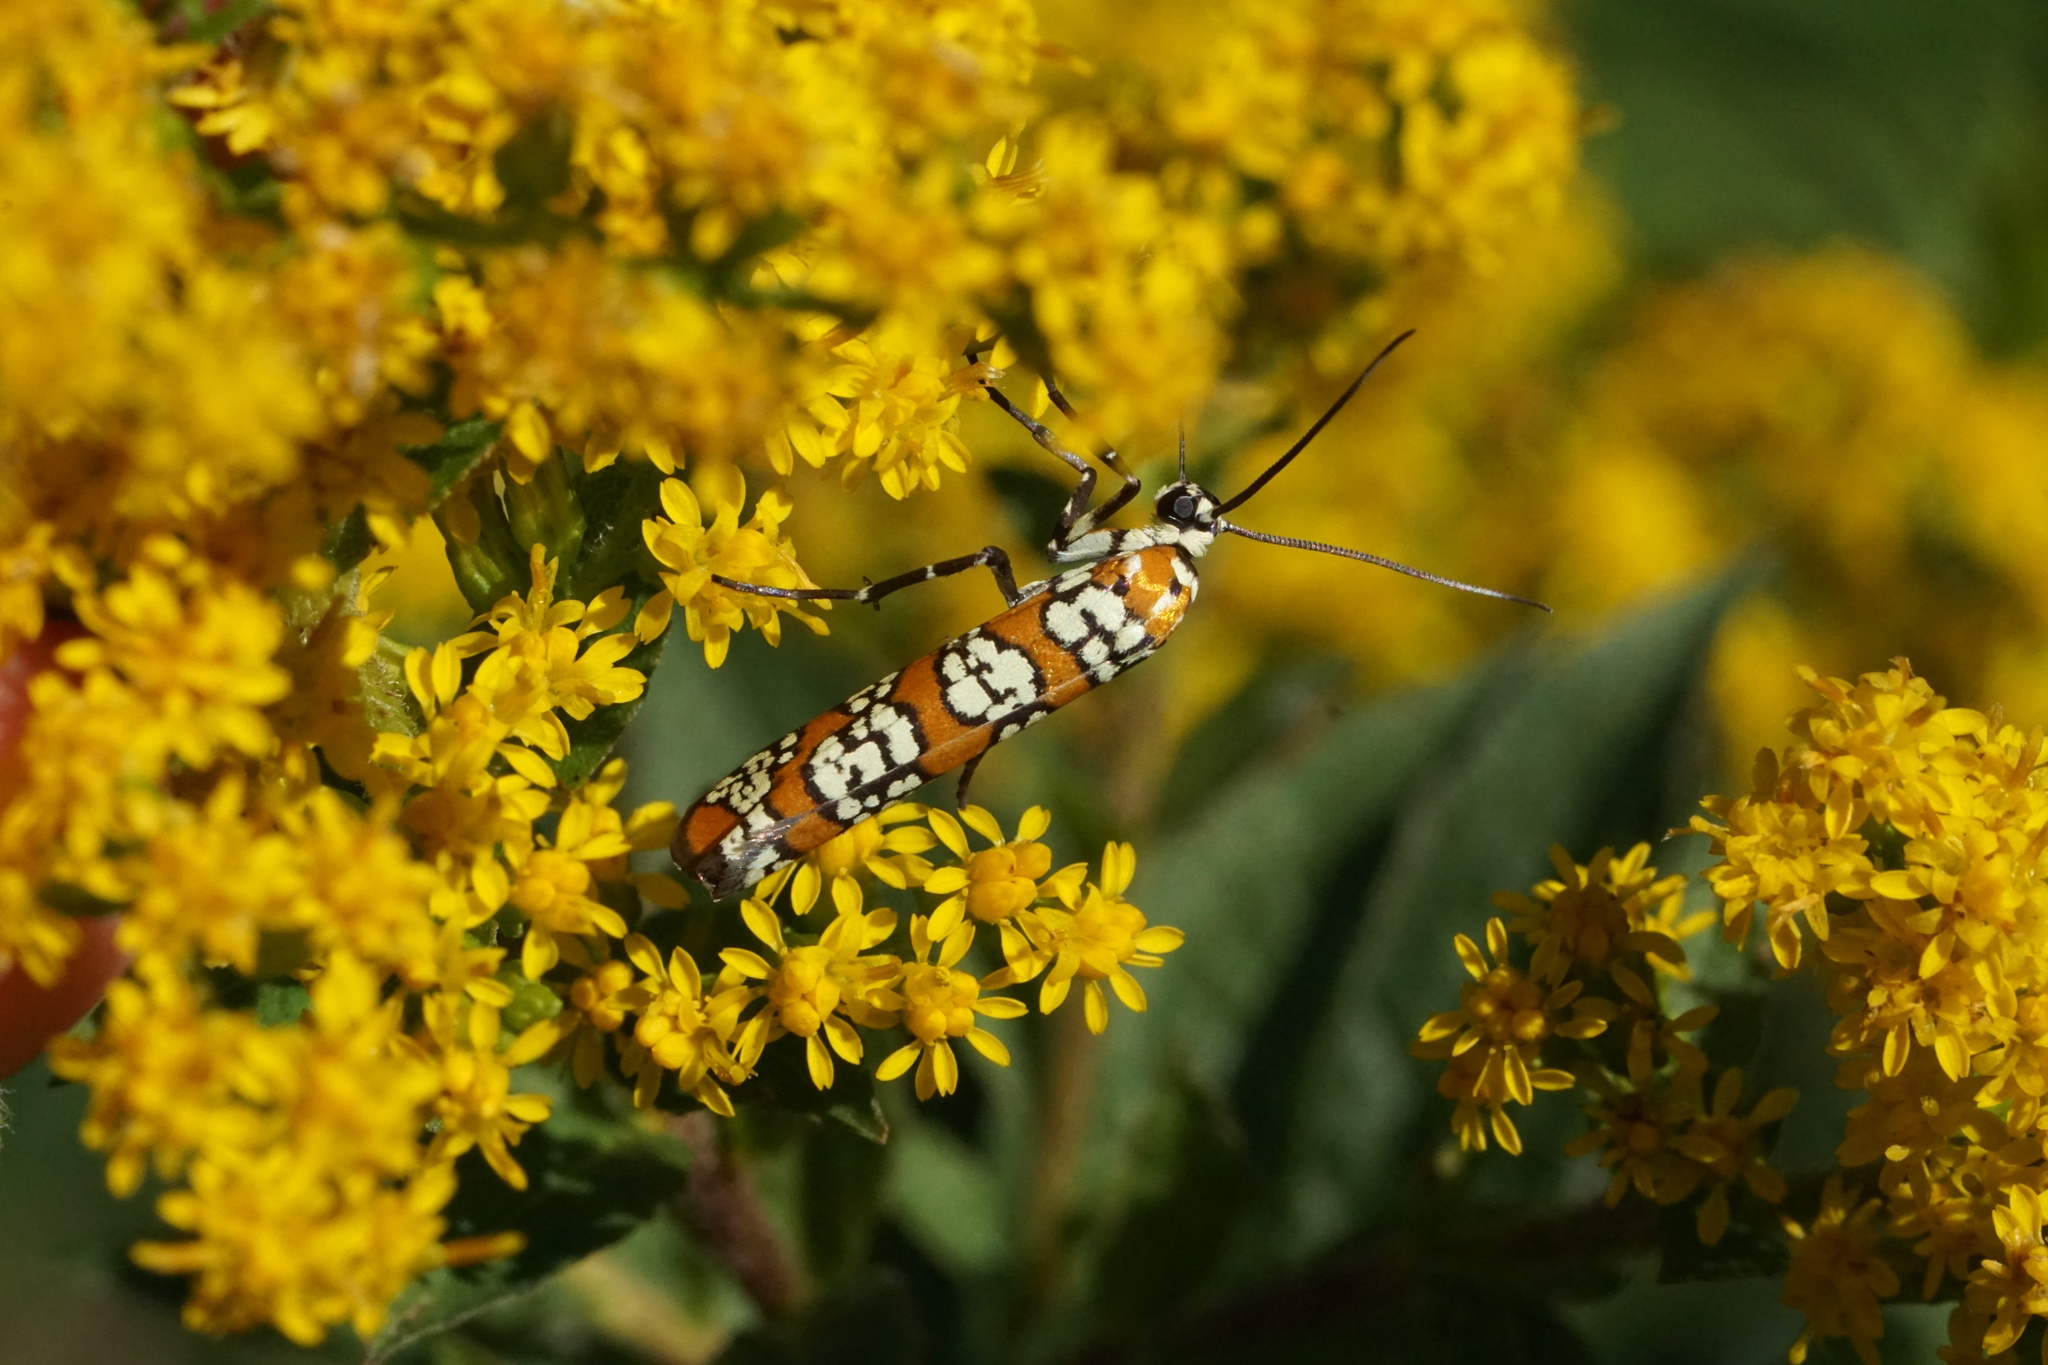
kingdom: Animalia
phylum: Arthropoda
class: Insecta
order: Lepidoptera
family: Attevidae
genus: Atteva
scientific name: Atteva punctella
